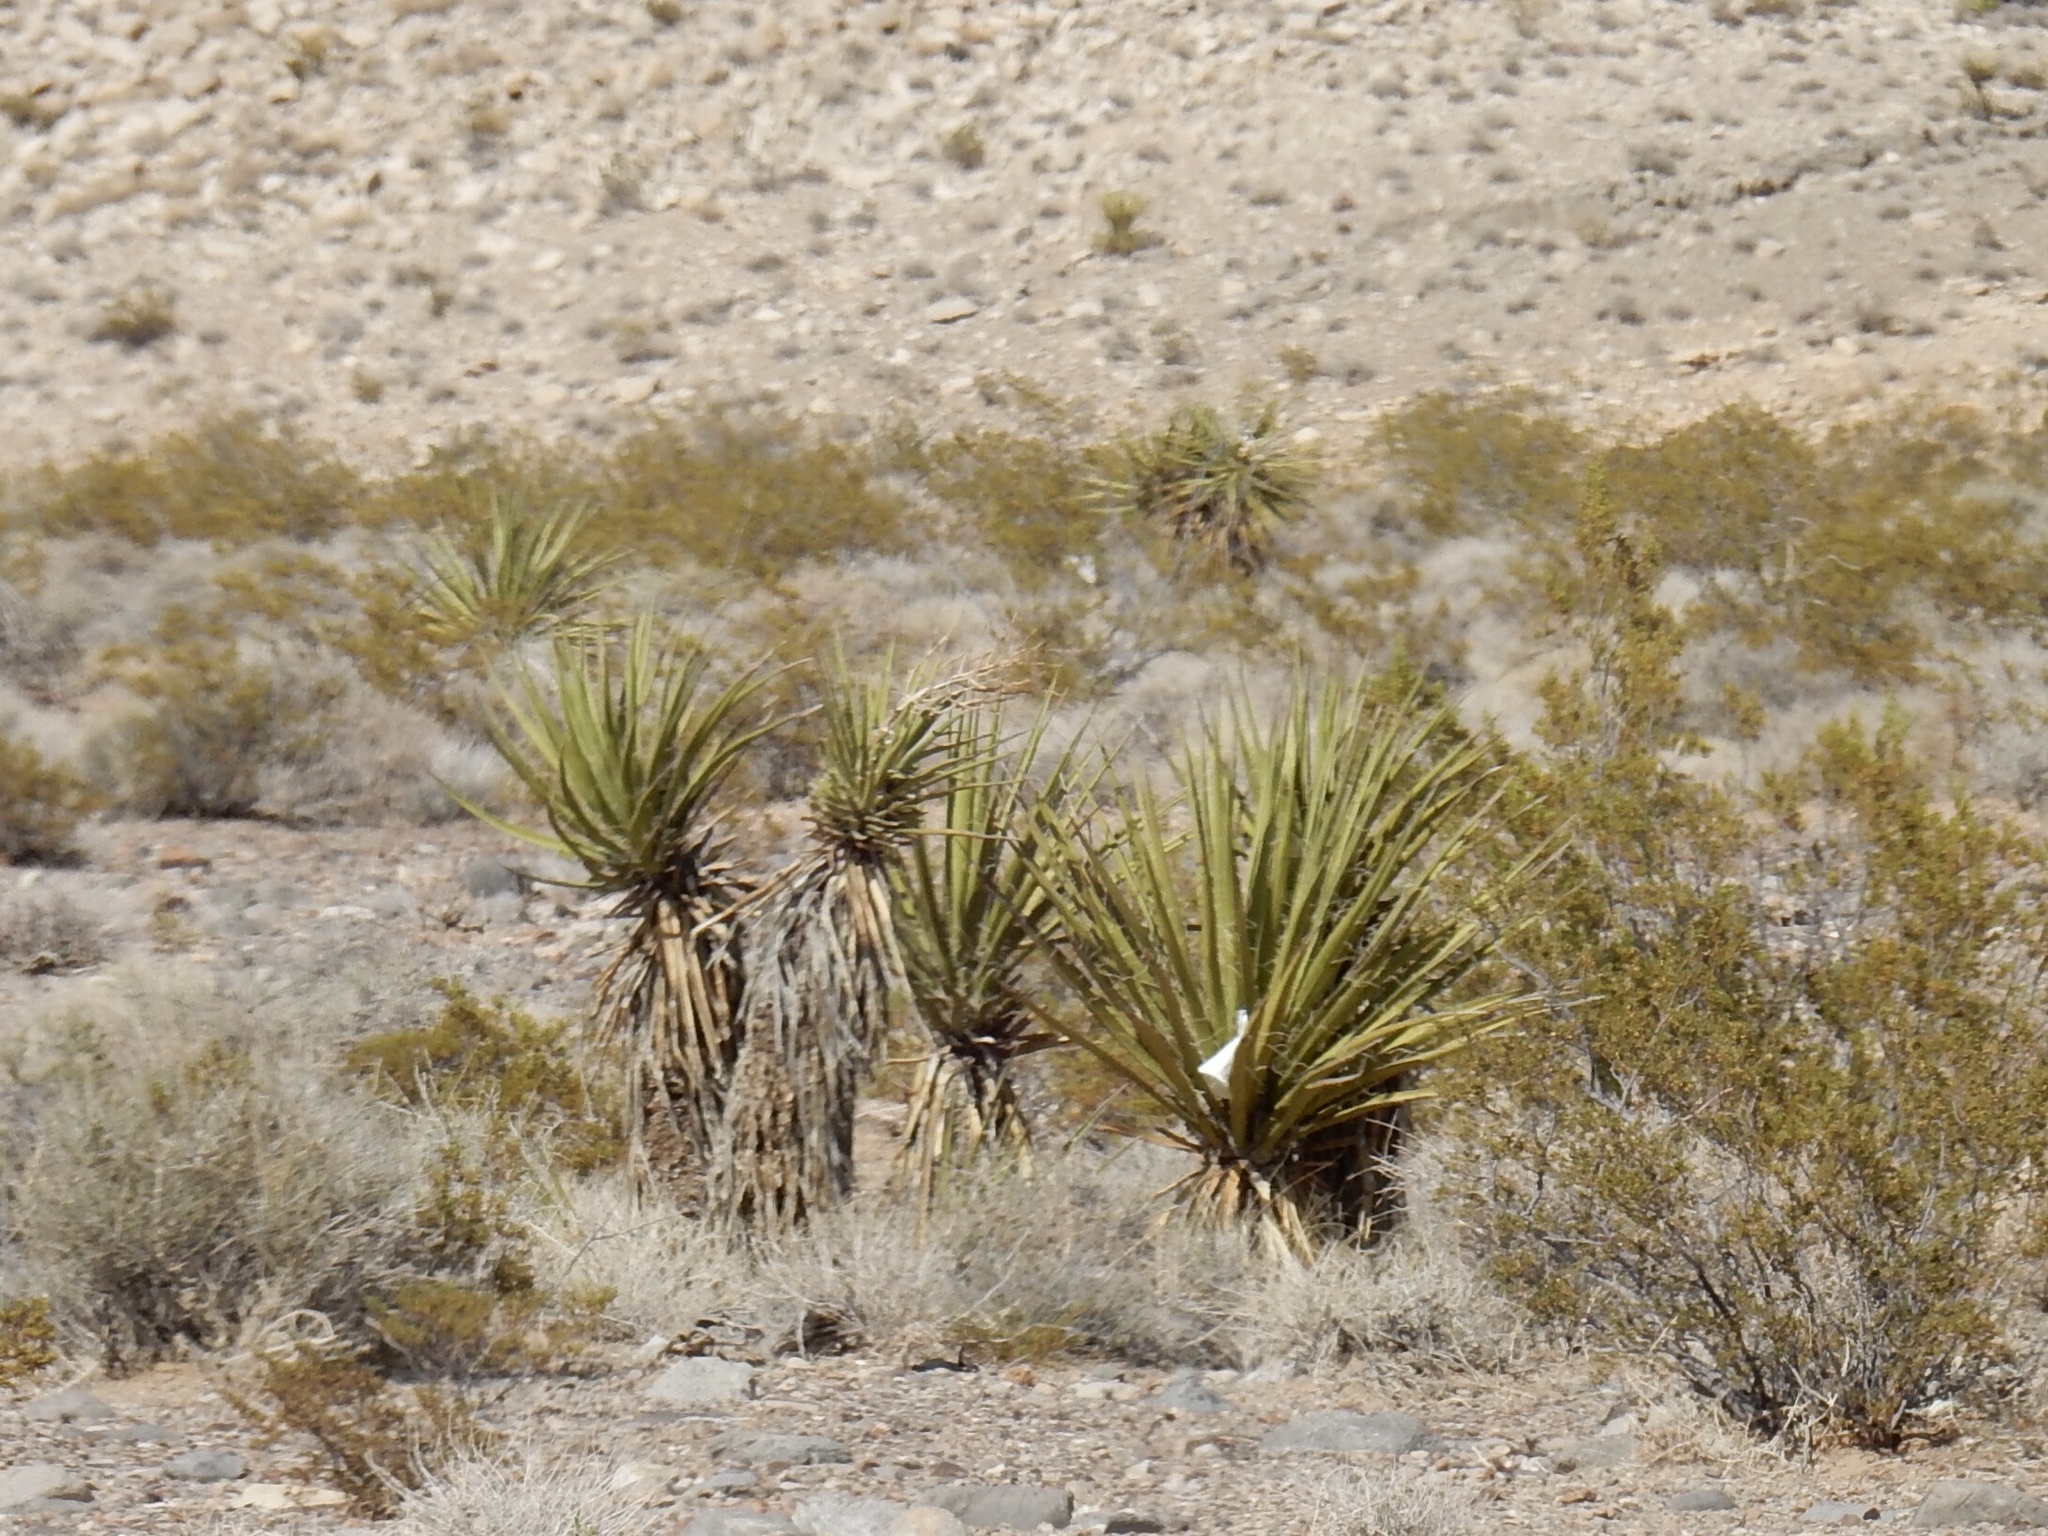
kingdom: Plantae
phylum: Tracheophyta
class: Liliopsida
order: Asparagales
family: Asparagaceae
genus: Yucca
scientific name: Yucca schidigera
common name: Mojave yucca
